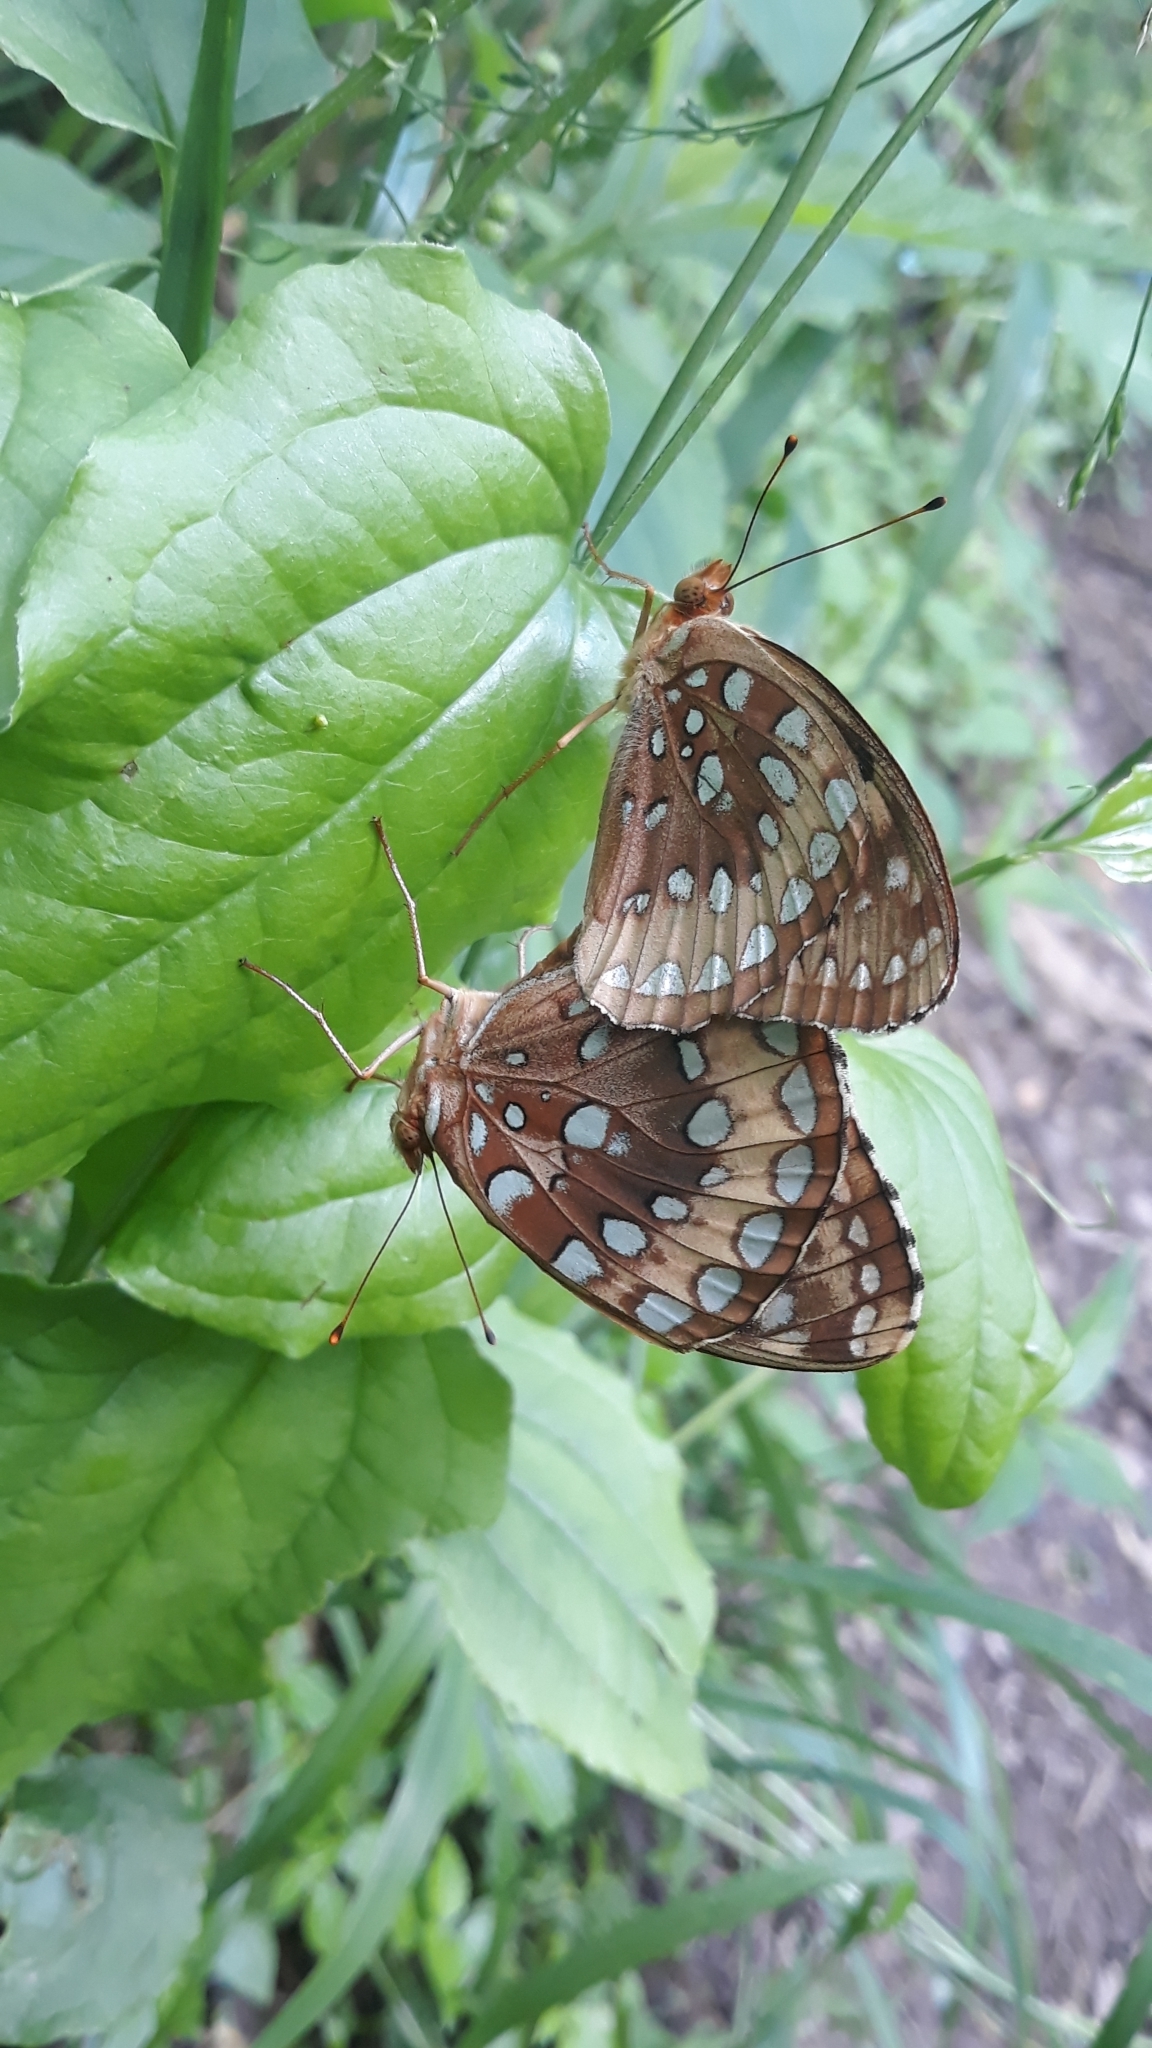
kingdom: Animalia
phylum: Arthropoda
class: Insecta
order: Lepidoptera
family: Nymphalidae
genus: Speyeria
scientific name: Speyeria cybele
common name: Great spangled fritillary
